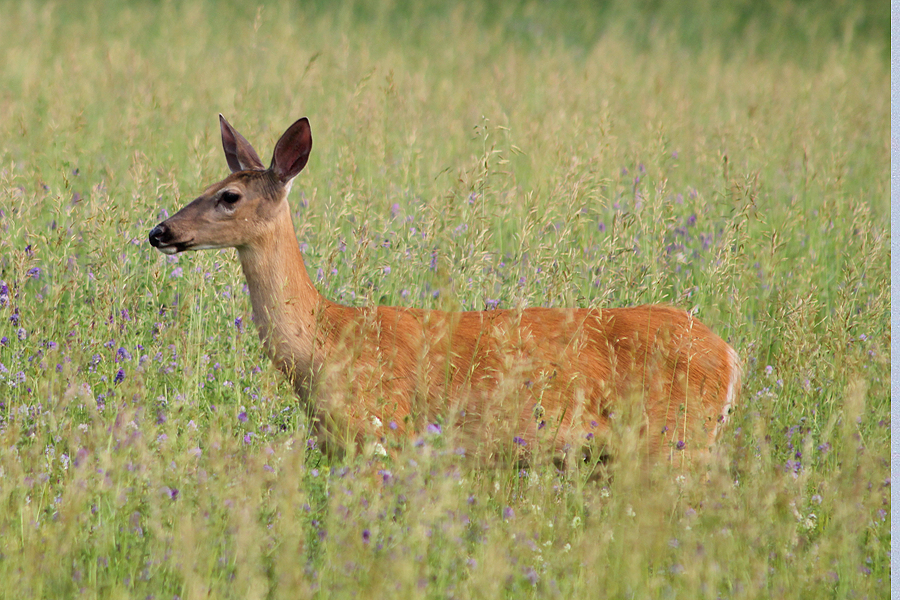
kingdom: Animalia
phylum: Chordata
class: Mammalia
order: Artiodactyla
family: Cervidae
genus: Odocoileus
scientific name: Odocoileus virginianus
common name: White-tailed deer
